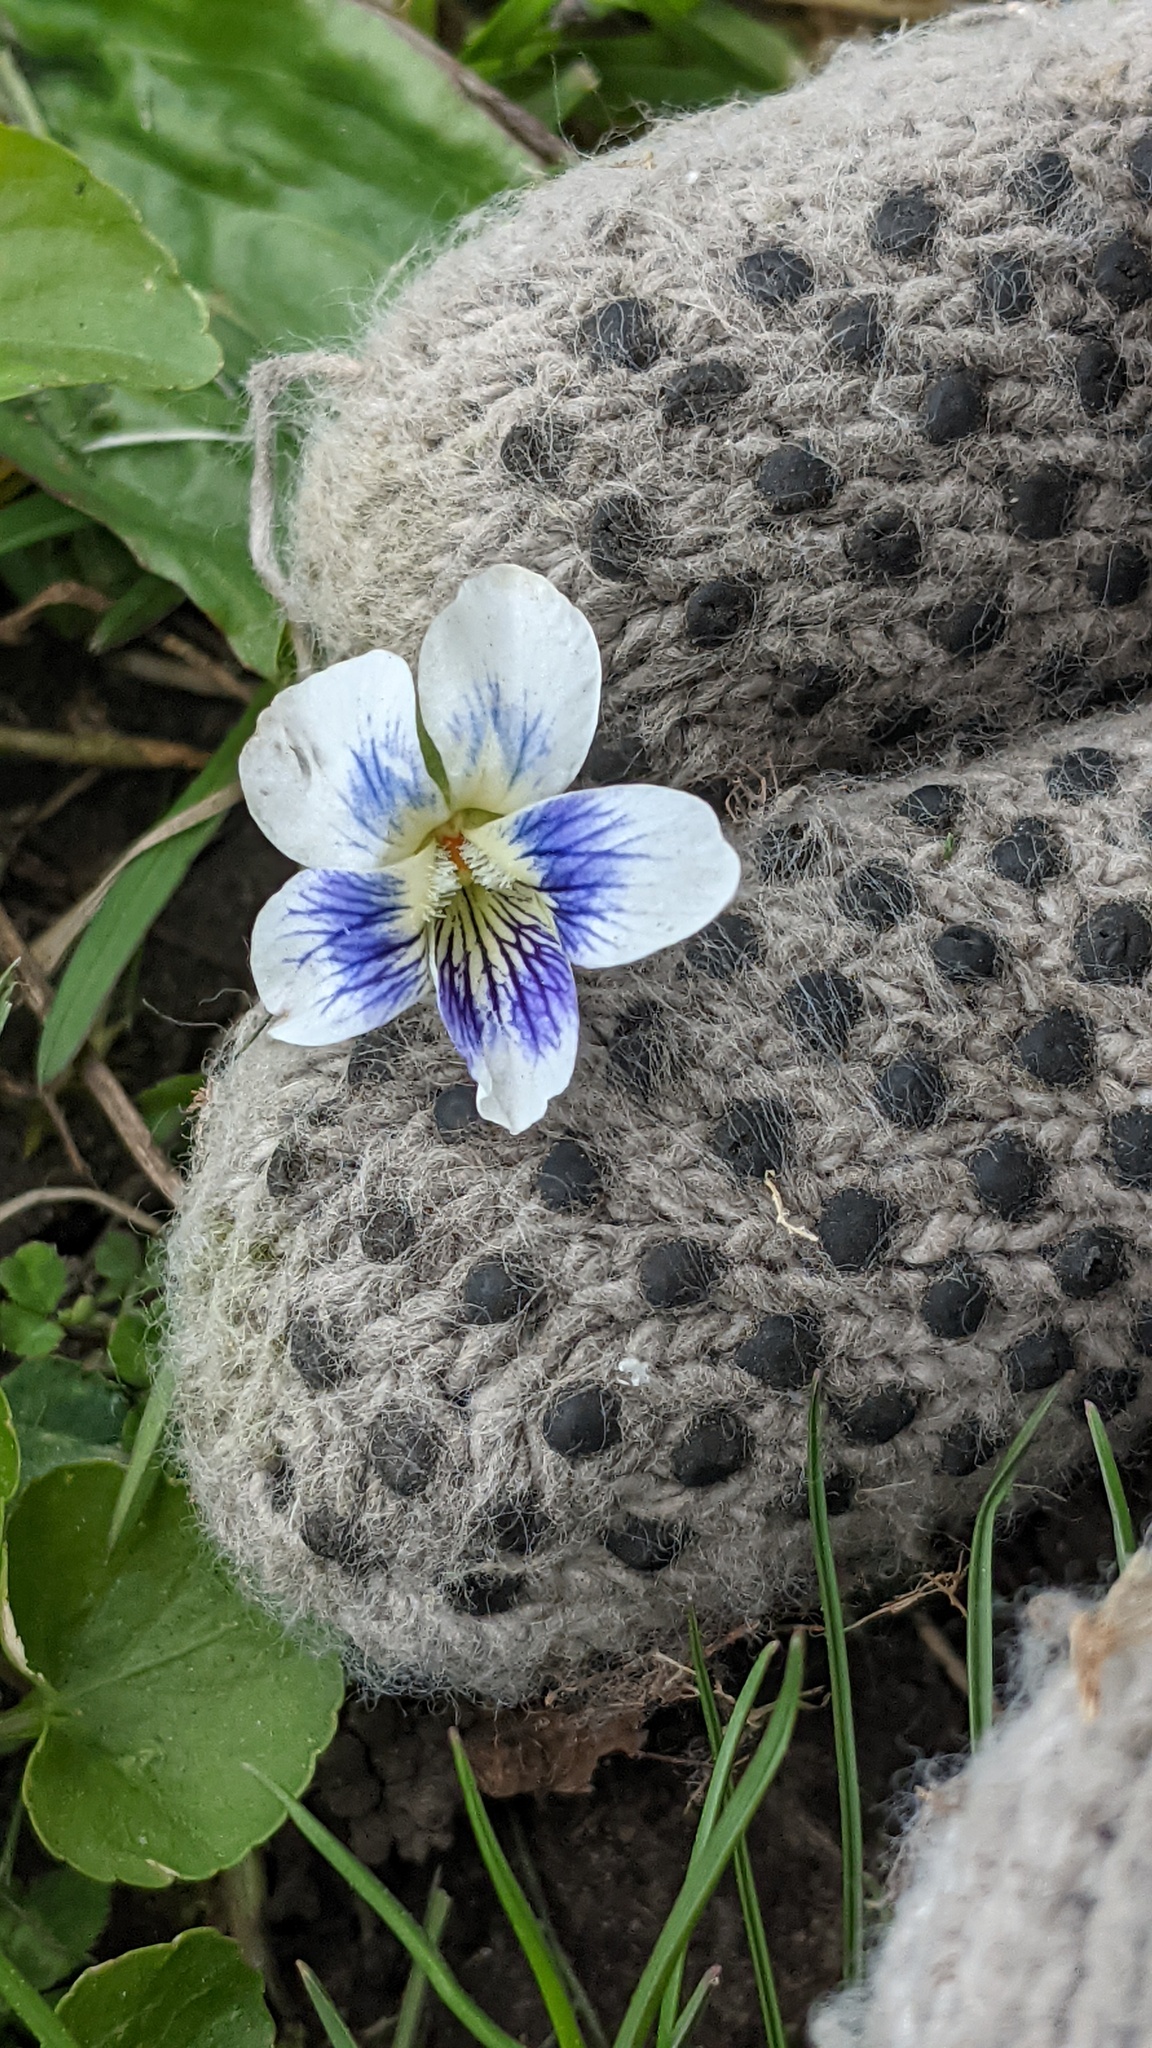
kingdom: Plantae
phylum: Tracheophyta
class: Magnoliopsida
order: Malpighiales
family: Violaceae
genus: Viola
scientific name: Viola sororia
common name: Dooryard violet
